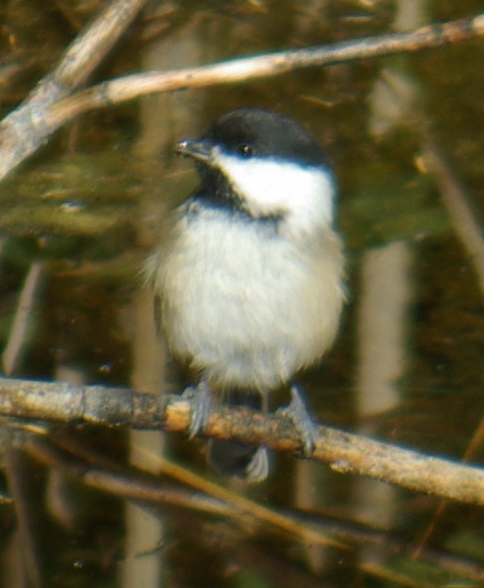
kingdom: Animalia
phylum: Chordata
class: Aves
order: Passeriformes
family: Paridae
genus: Poecile
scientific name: Poecile atricapillus
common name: Black-capped chickadee
